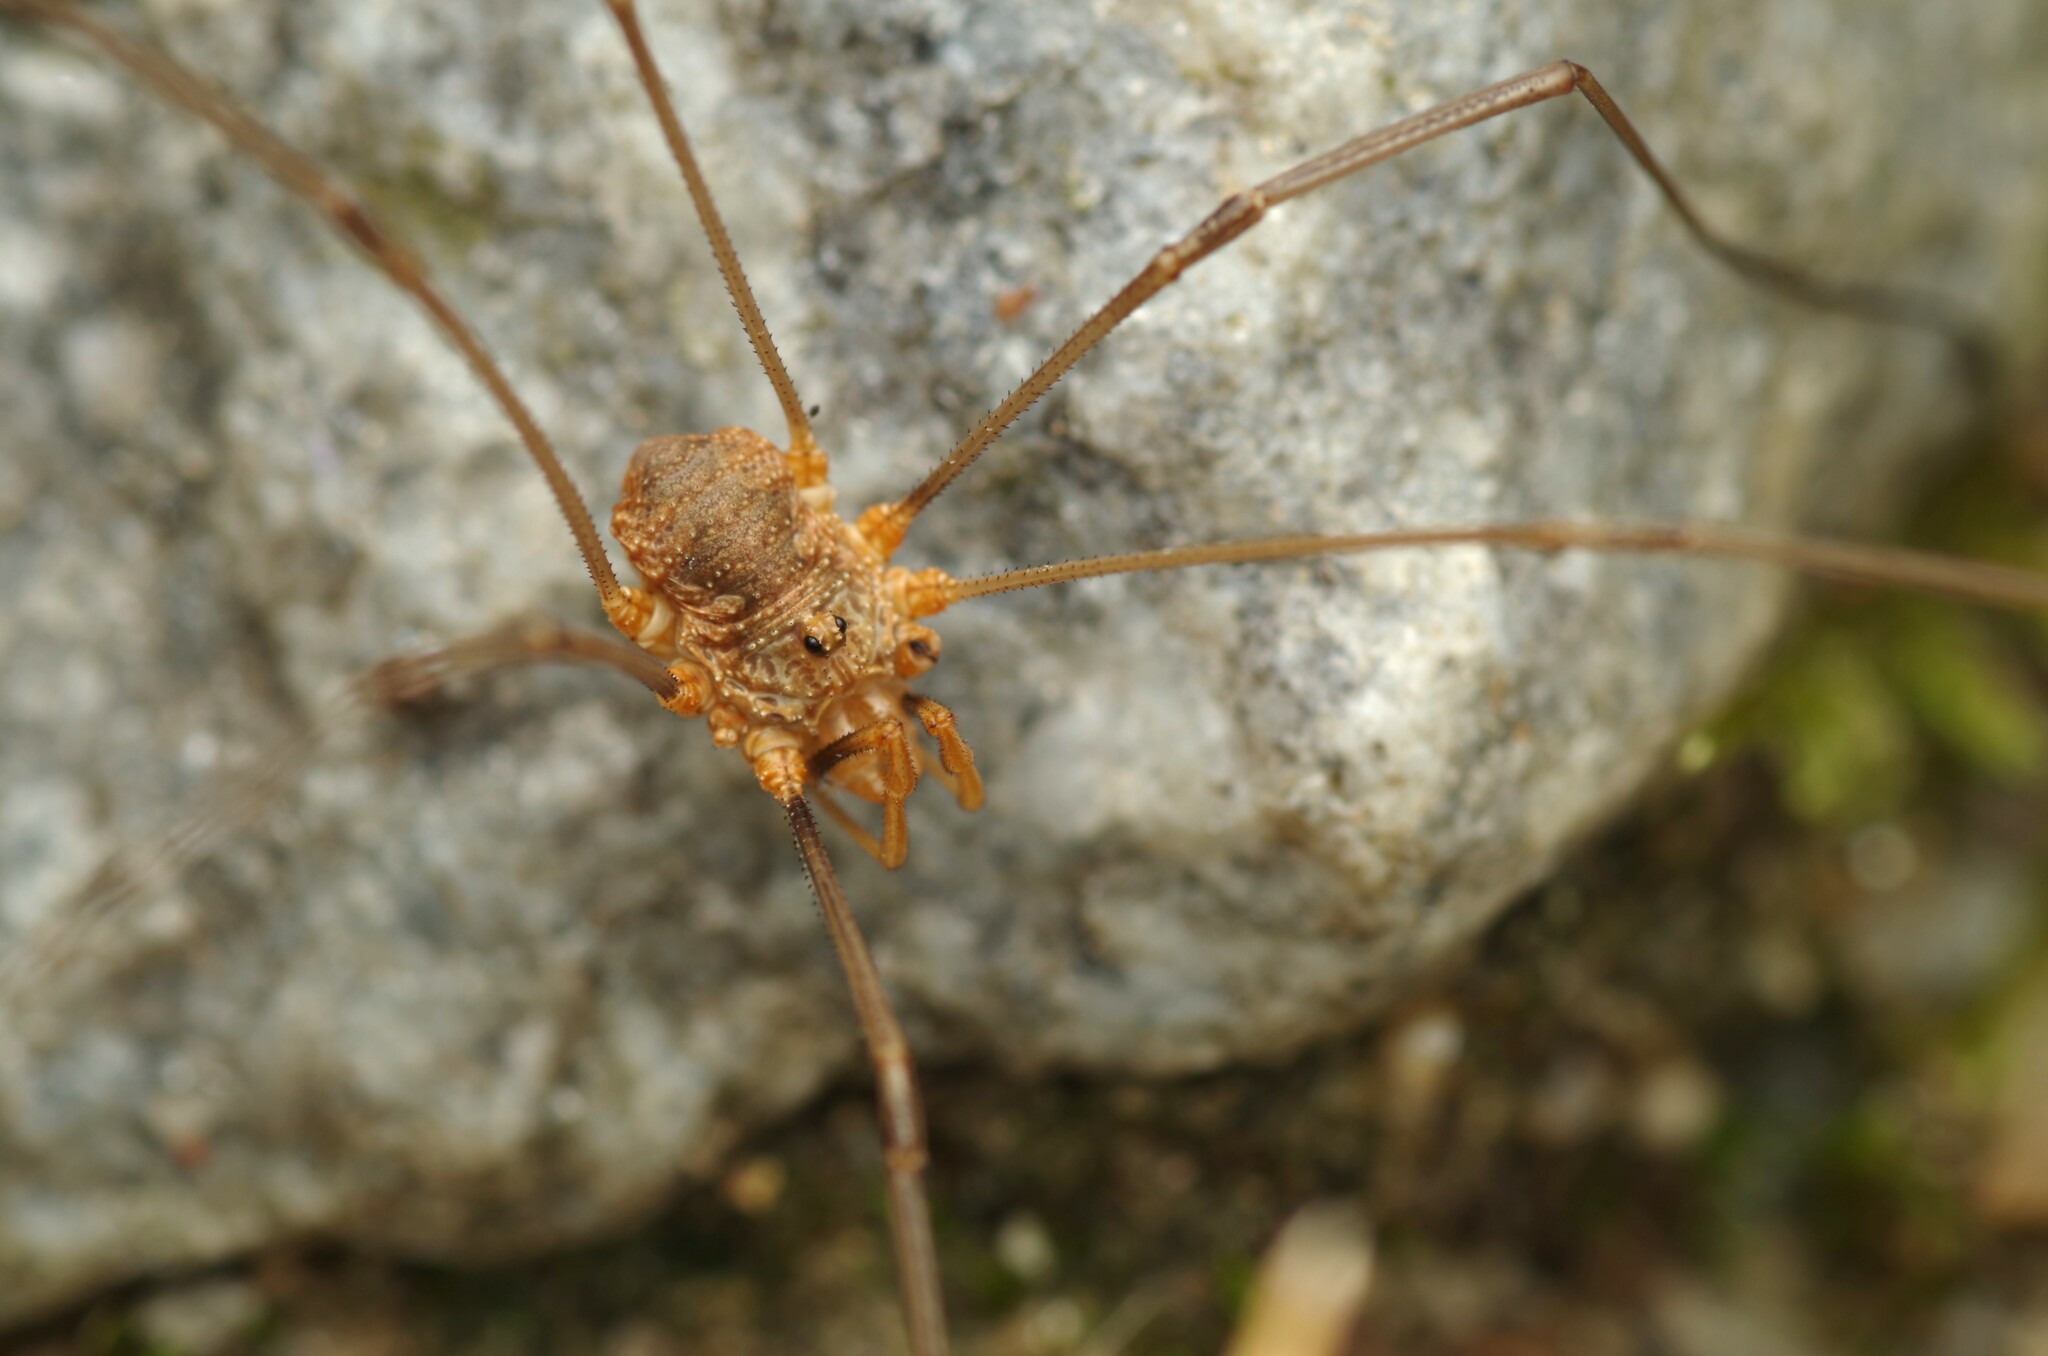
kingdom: Animalia
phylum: Arthropoda
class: Arachnida
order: Opiliones
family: Phalangiidae
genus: Phalangium
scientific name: Phalangium opilio
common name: Daddy longleg
